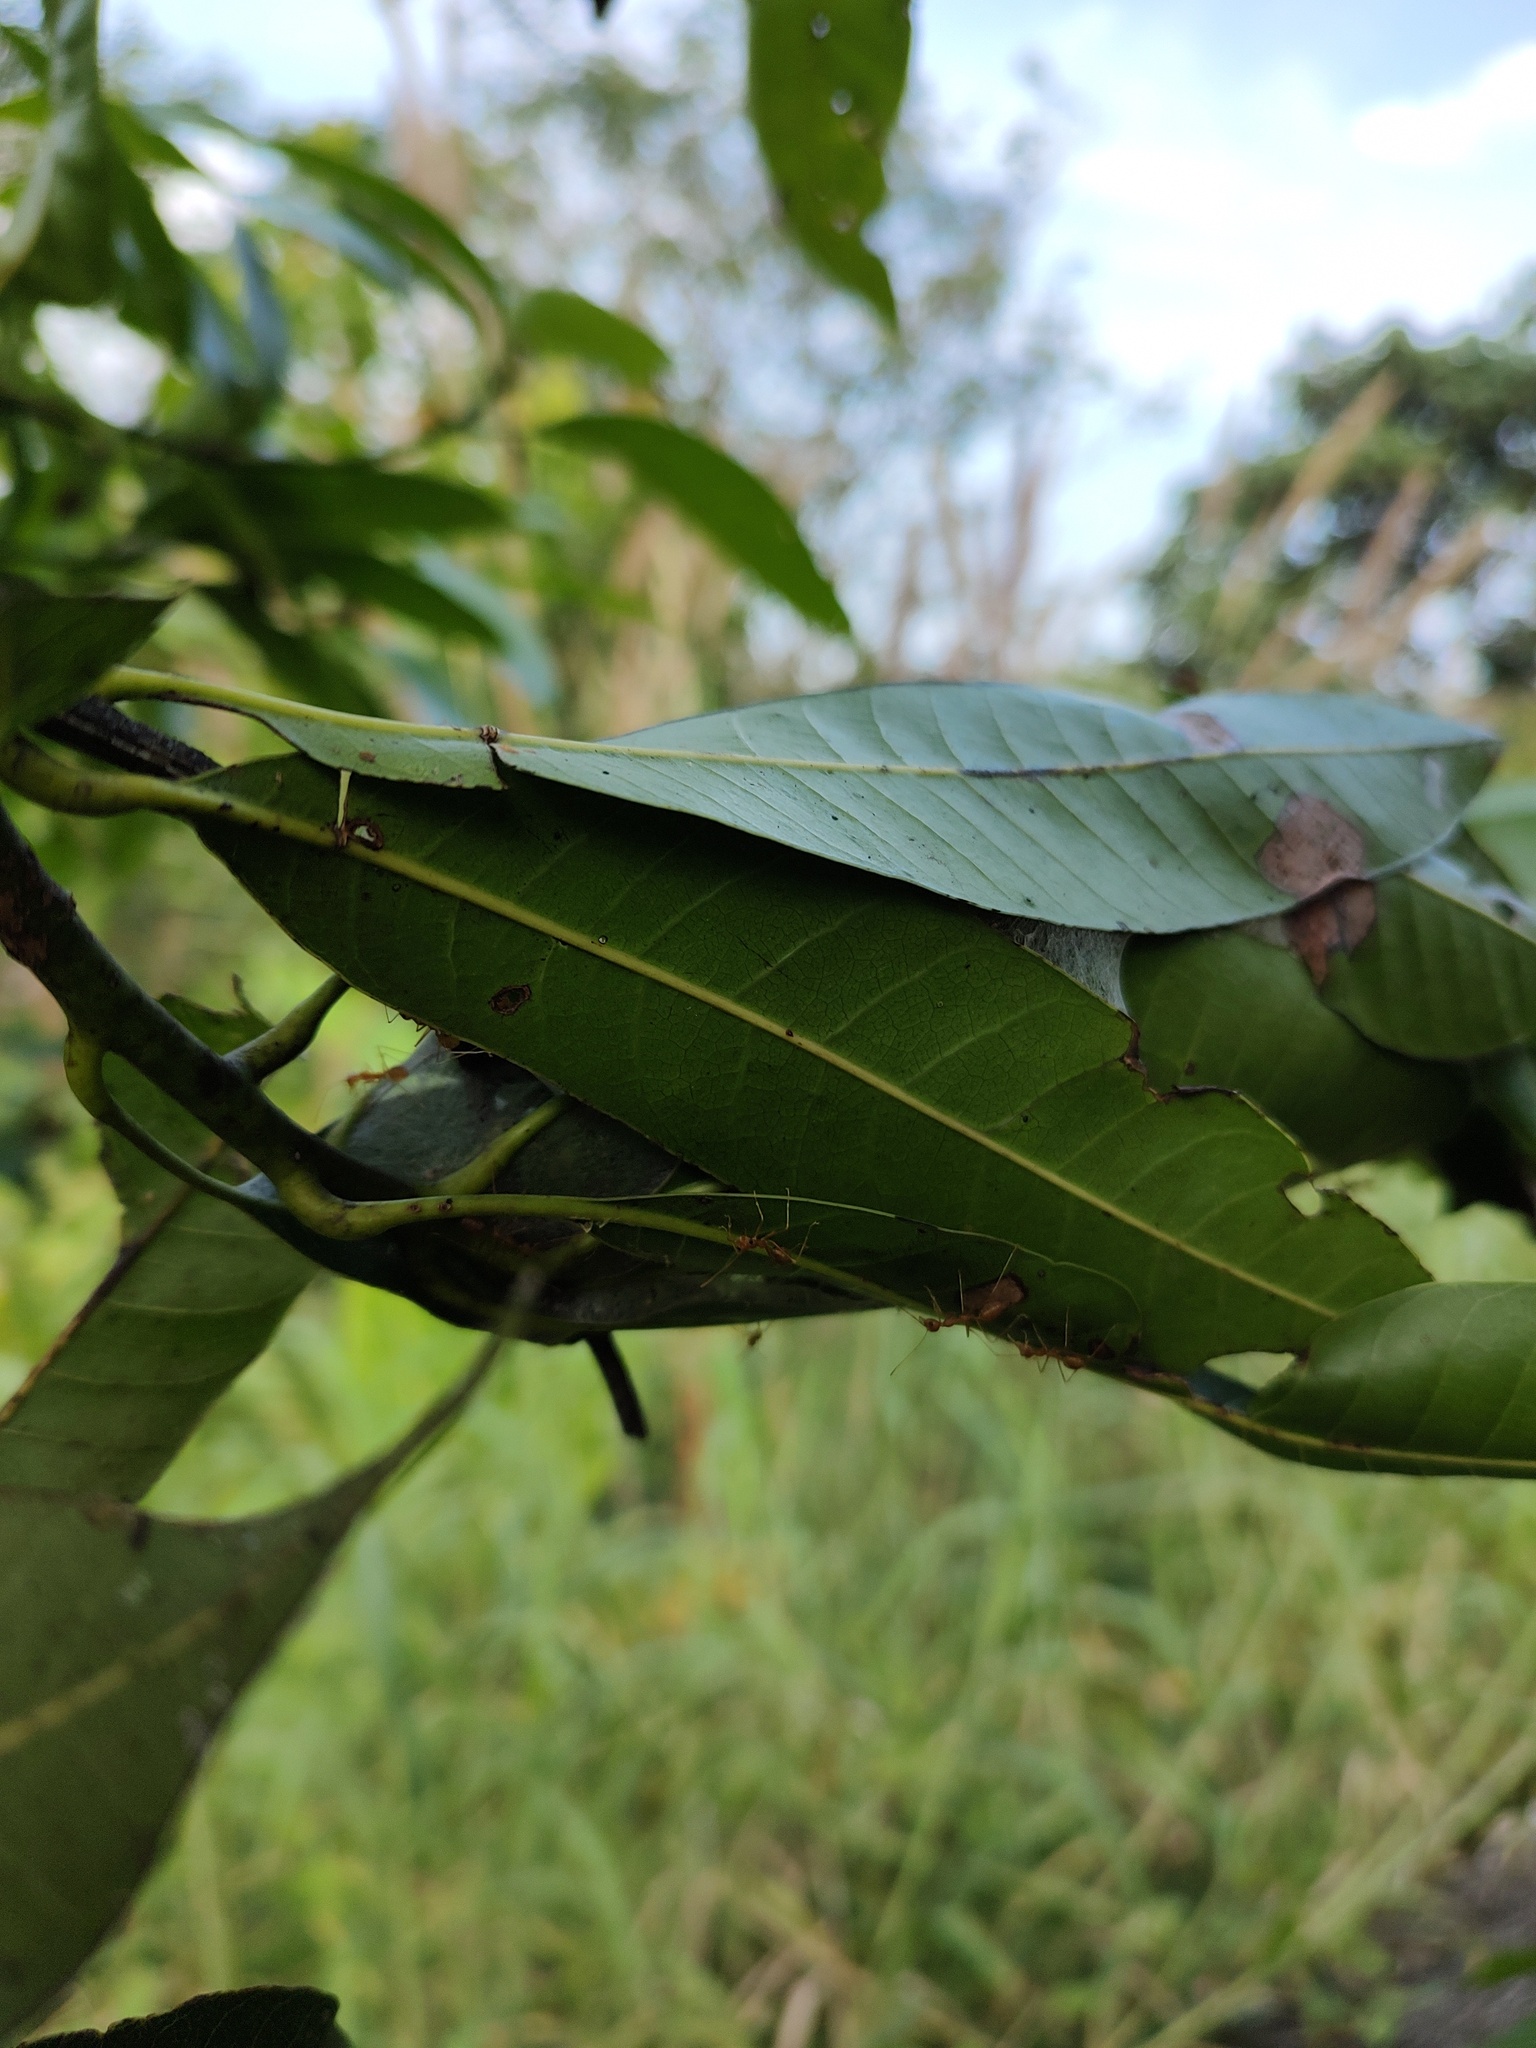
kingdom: Animalia
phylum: Arthropoda
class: Insecta
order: Hymenoptera
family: Formicidae
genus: Oecophylla
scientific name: Oecophylla smaragdina
